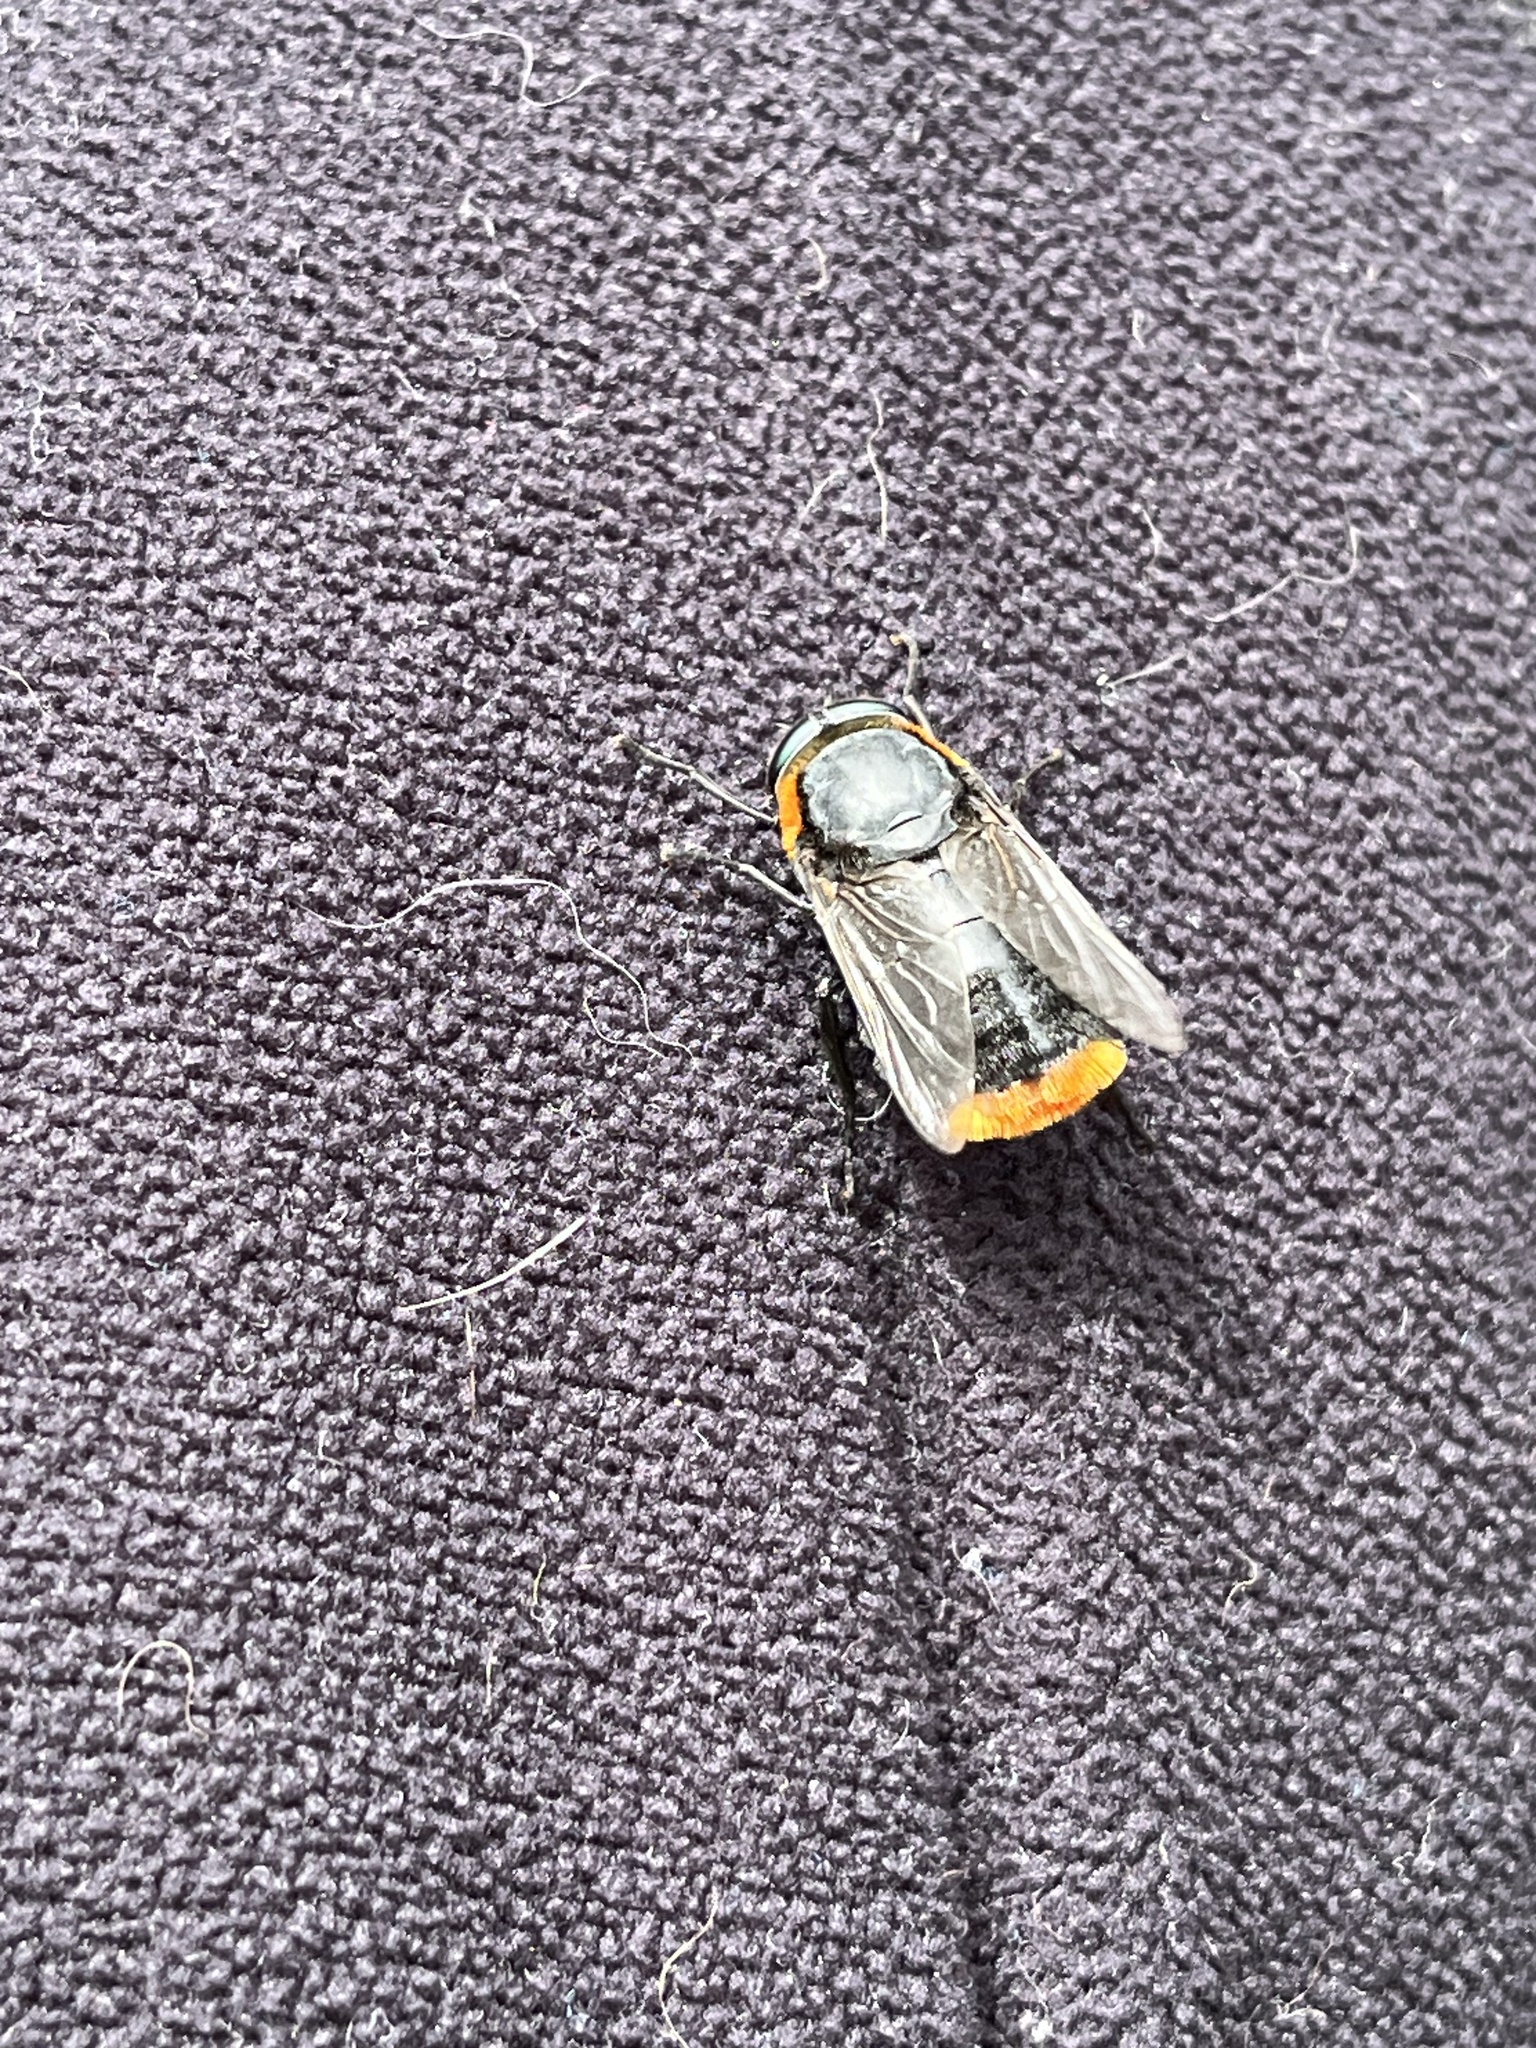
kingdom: Animalia
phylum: Arthropoda
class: Insecta
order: Diptera
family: Tabanidae
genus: Osca
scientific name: Osca lata
